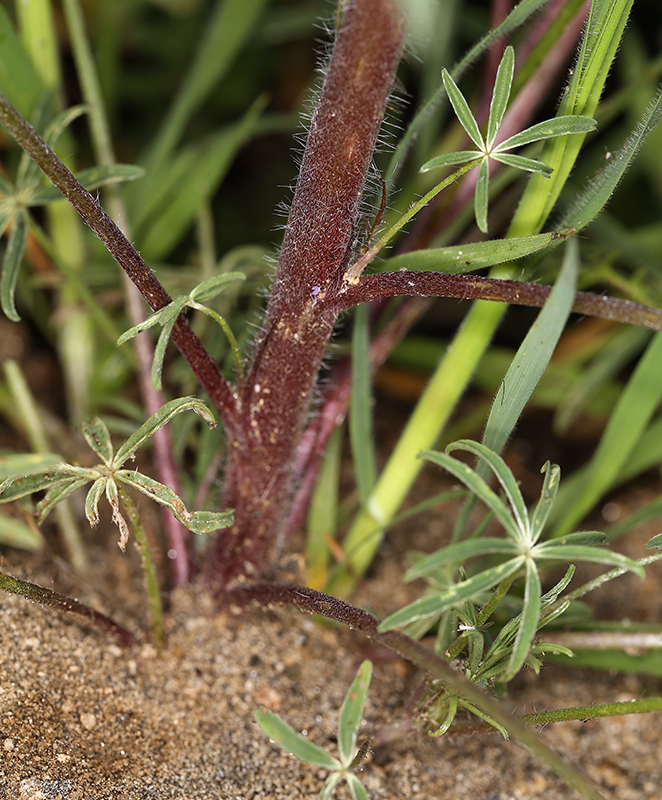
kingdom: Plantae
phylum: Tracheophyta
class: Magnoliopsida
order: Fabales
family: Fabaceae
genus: Lupinus
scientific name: Lupinus benthamii
